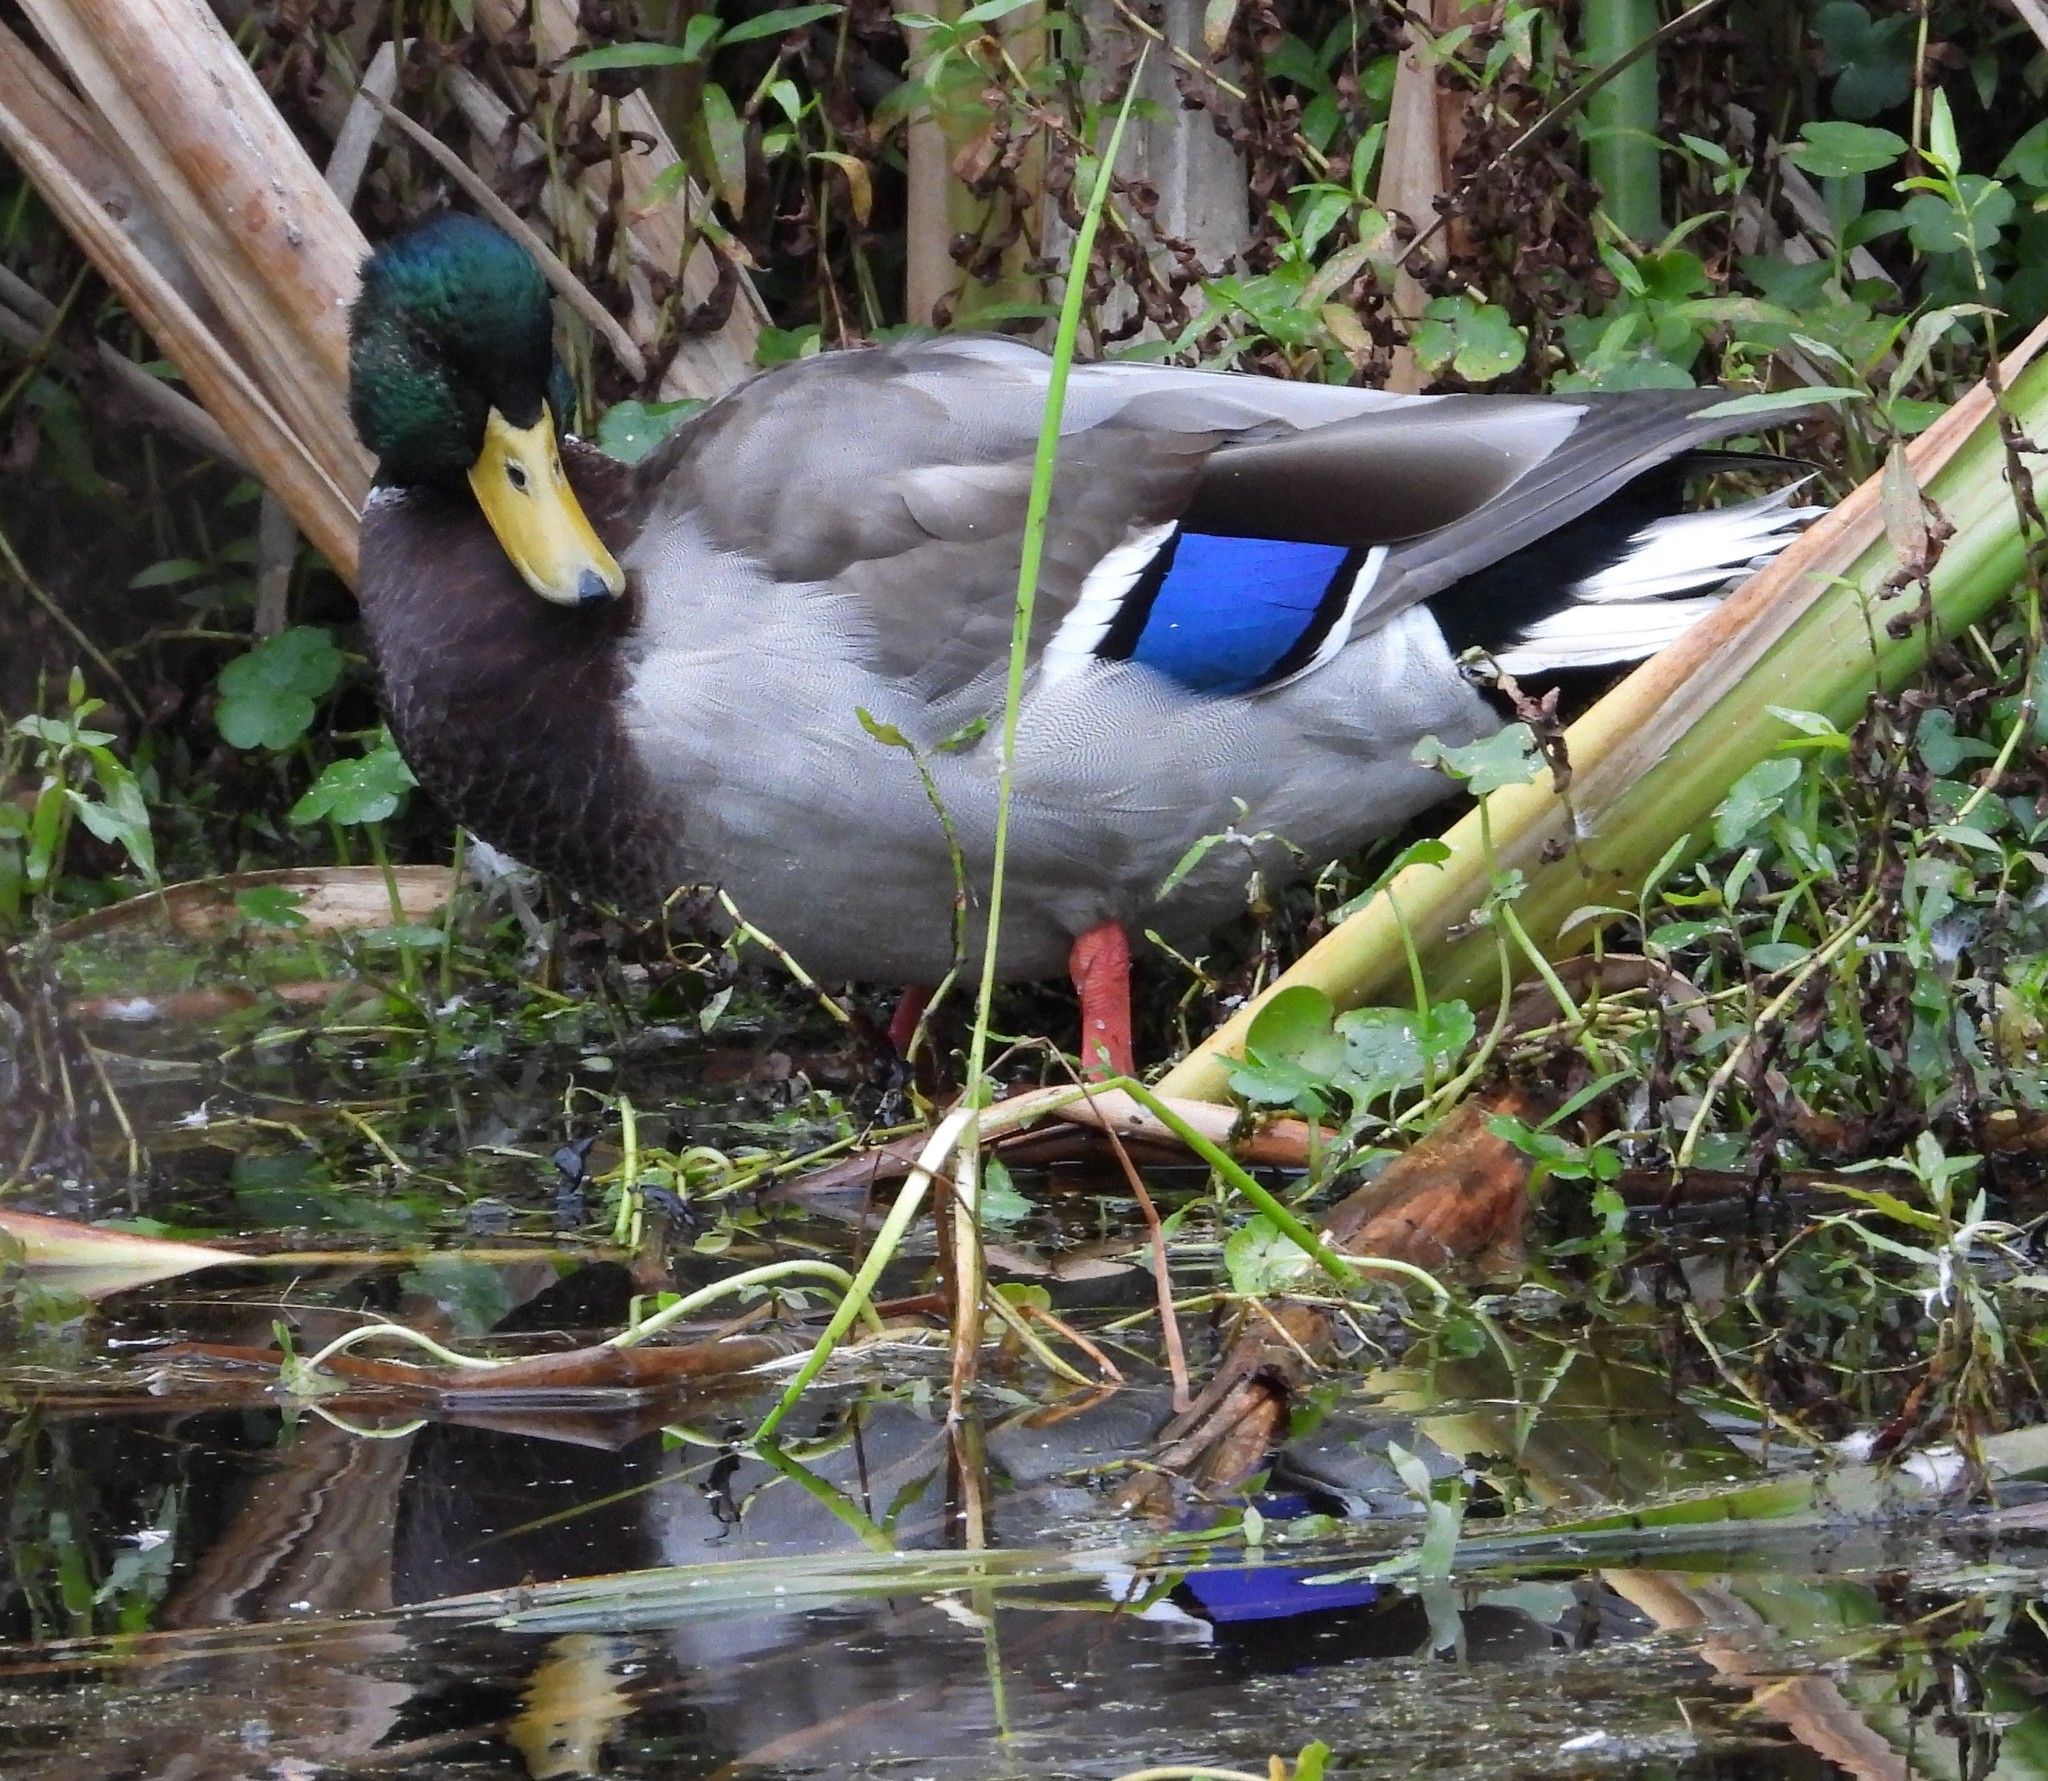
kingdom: Animalia
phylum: Chordata
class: Aves
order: Anseriformes
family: Anatidae
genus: Anas
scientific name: Anas platyrhynchos
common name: Mallard
